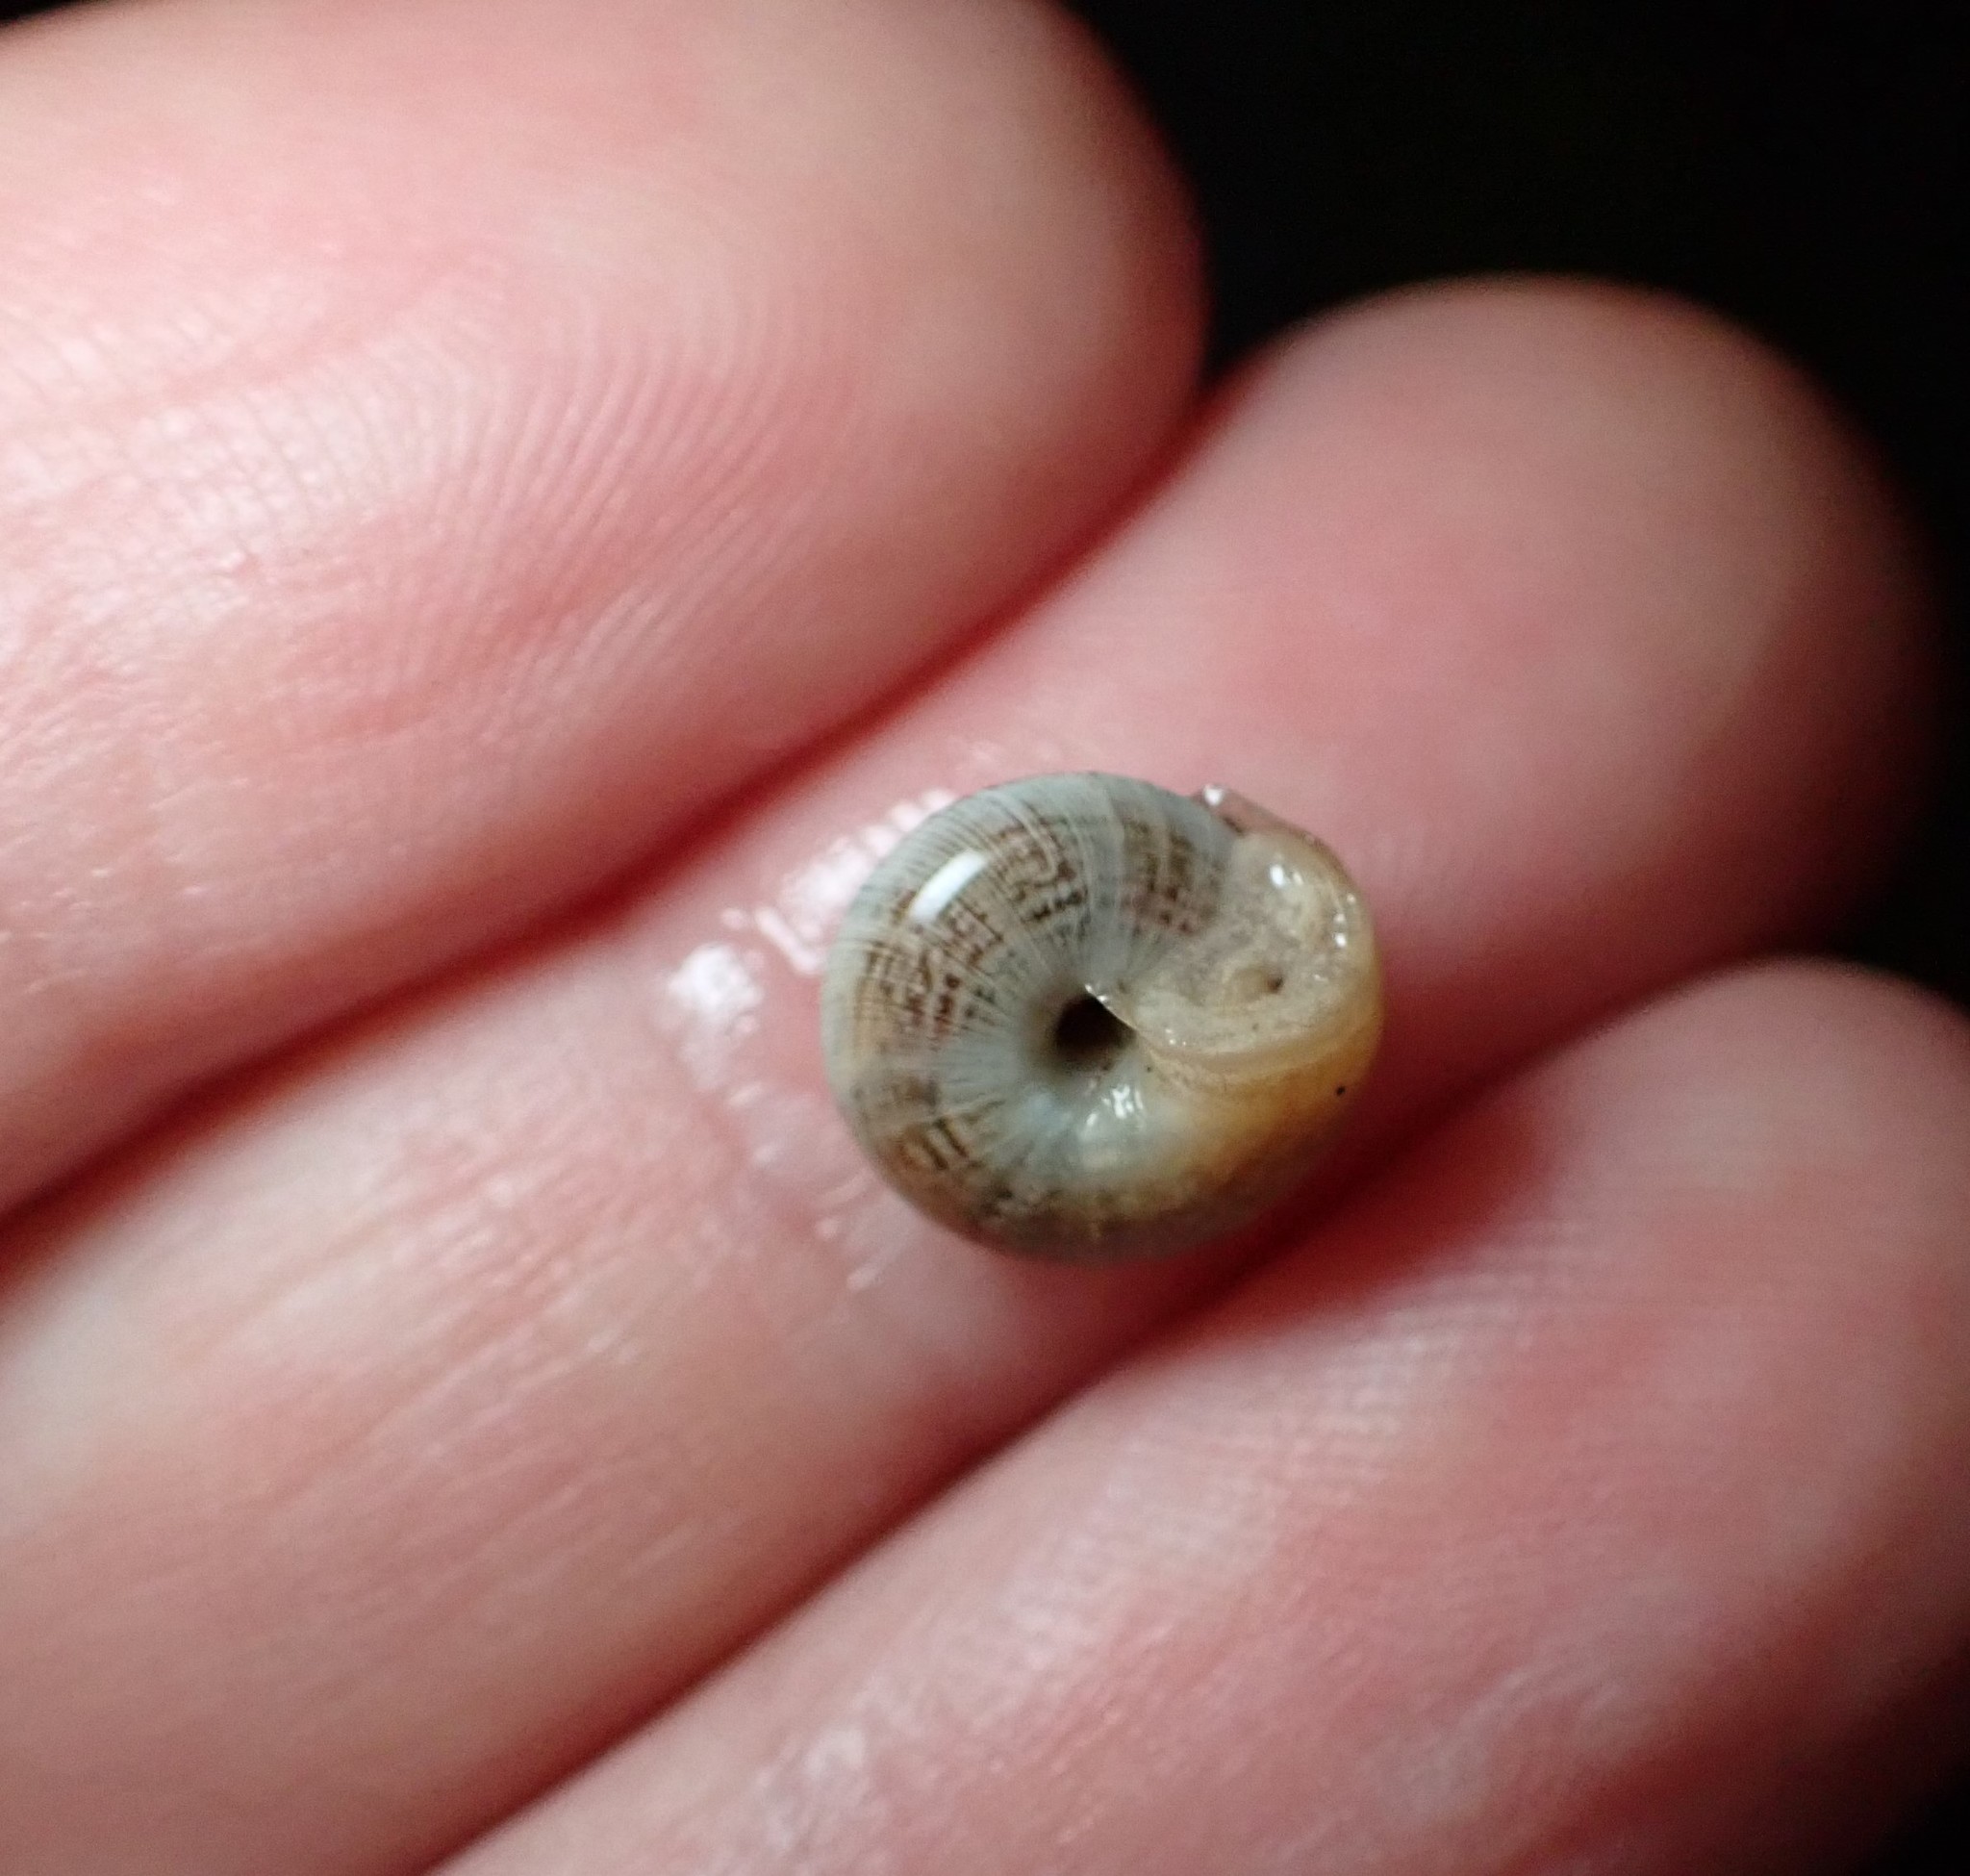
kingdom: Animalia
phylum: Mollusca
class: Gastropoda
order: Stylommatophora
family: Geomitridae
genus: Xeroplexa
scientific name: Xeroplexa intersecta
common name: Wrinkled snail
